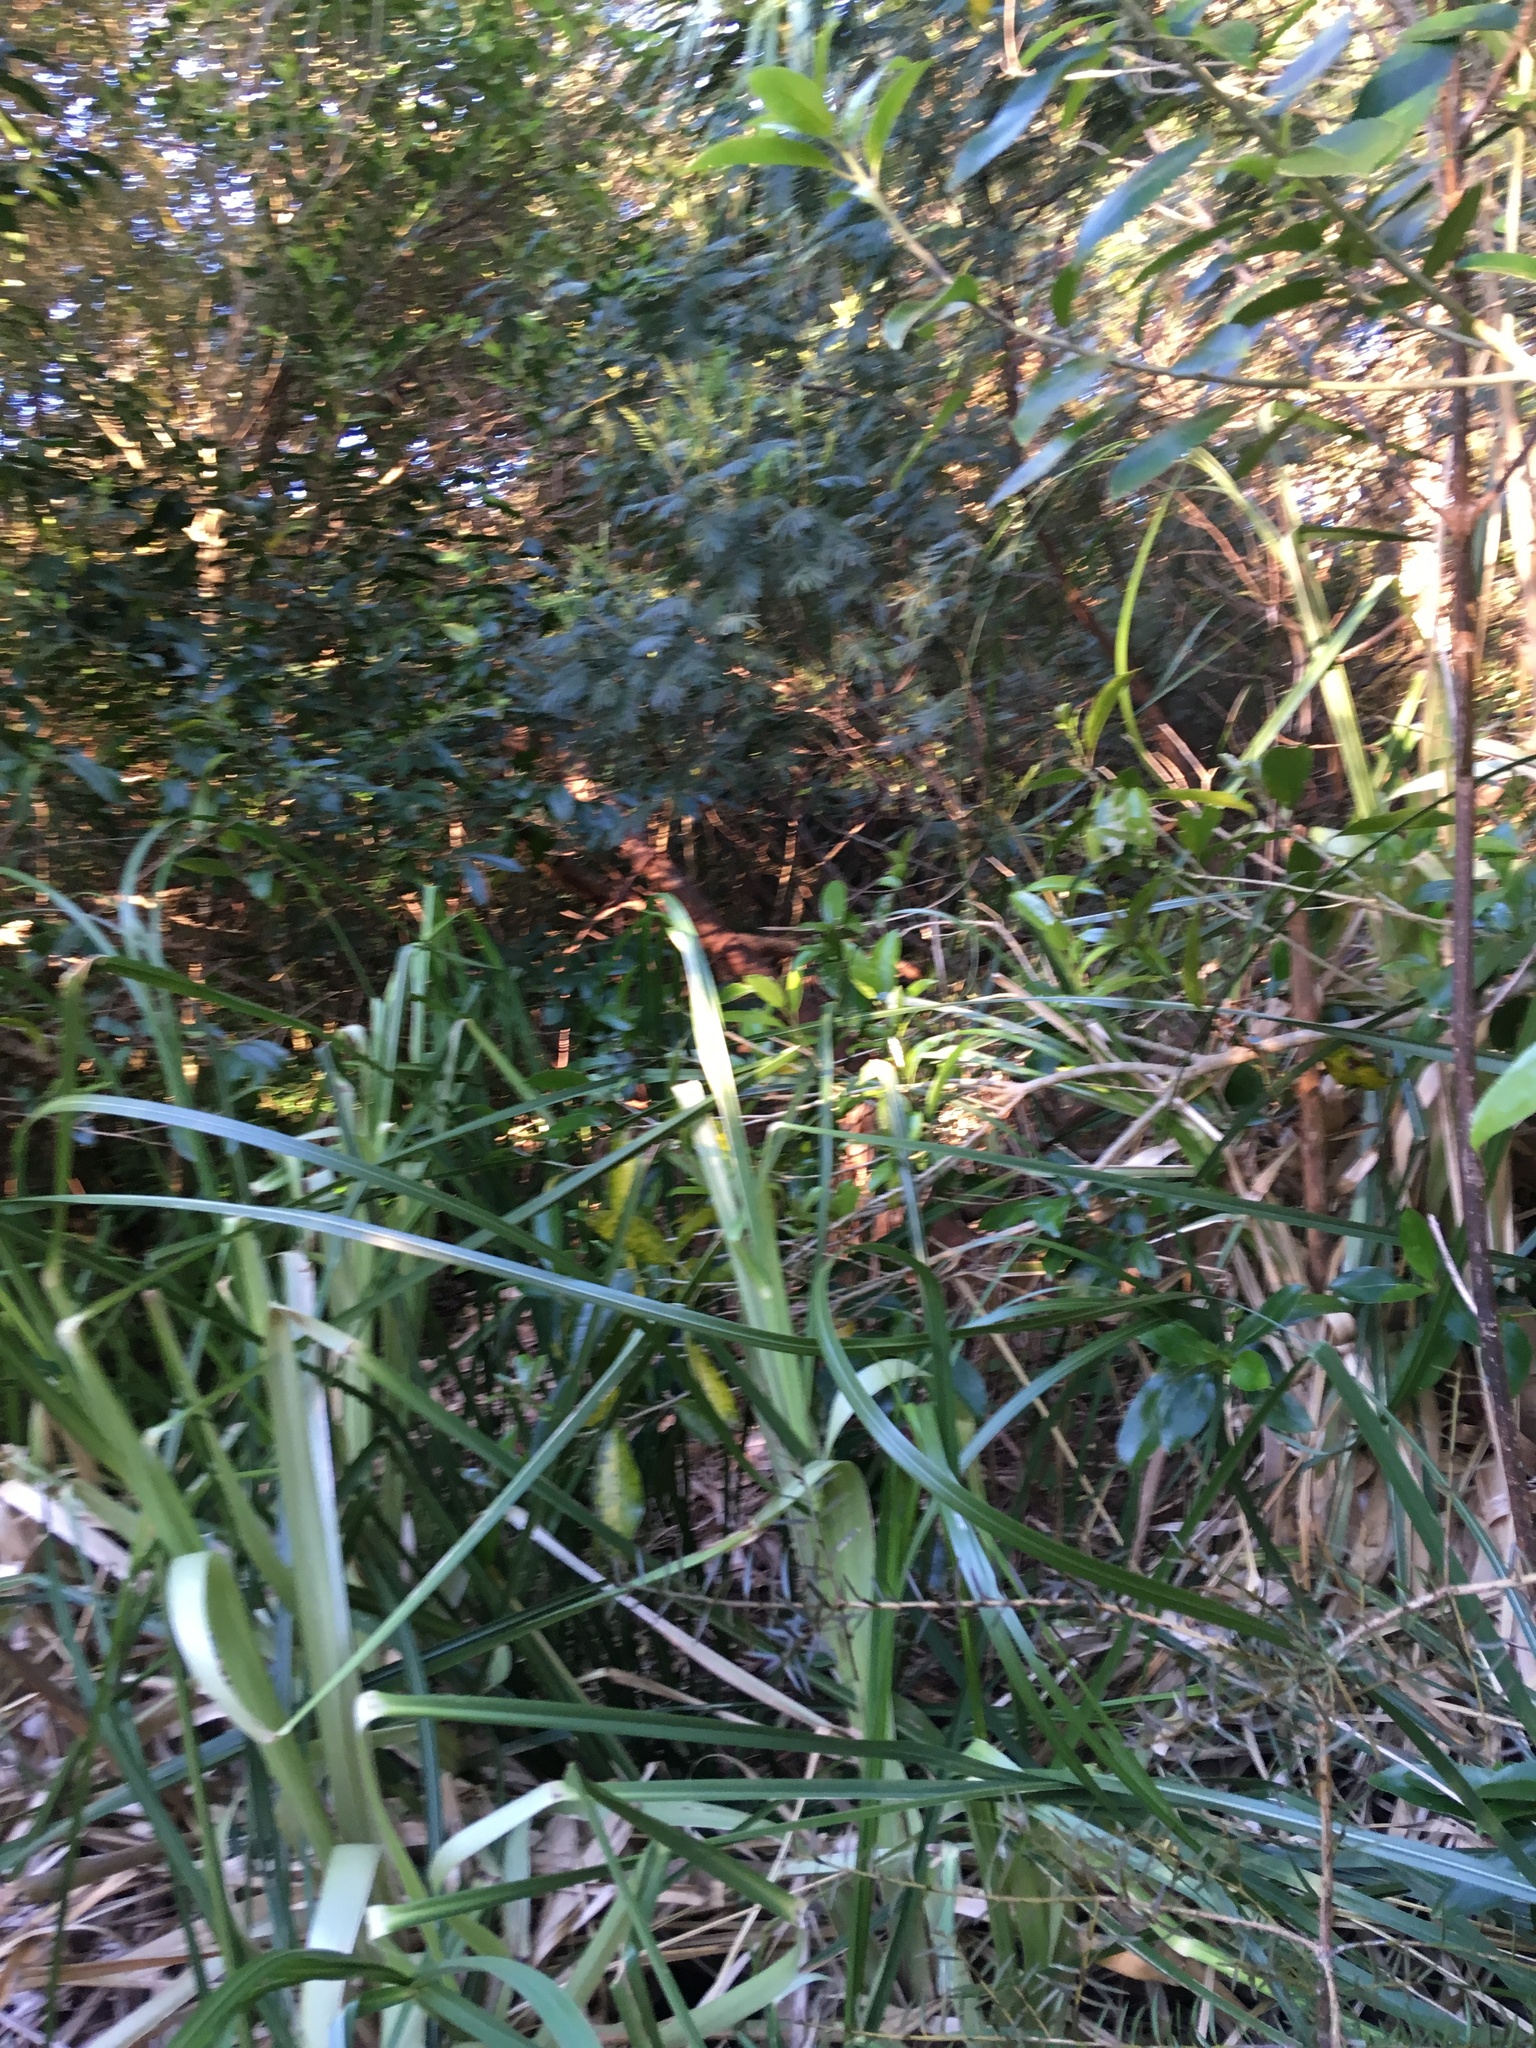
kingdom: Plantae
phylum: Tracheophyta
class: Liliopsida
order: Poales
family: Poaceae
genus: Cortaderia
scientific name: Cortaderia selloana
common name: Uruguayan pampas grass
